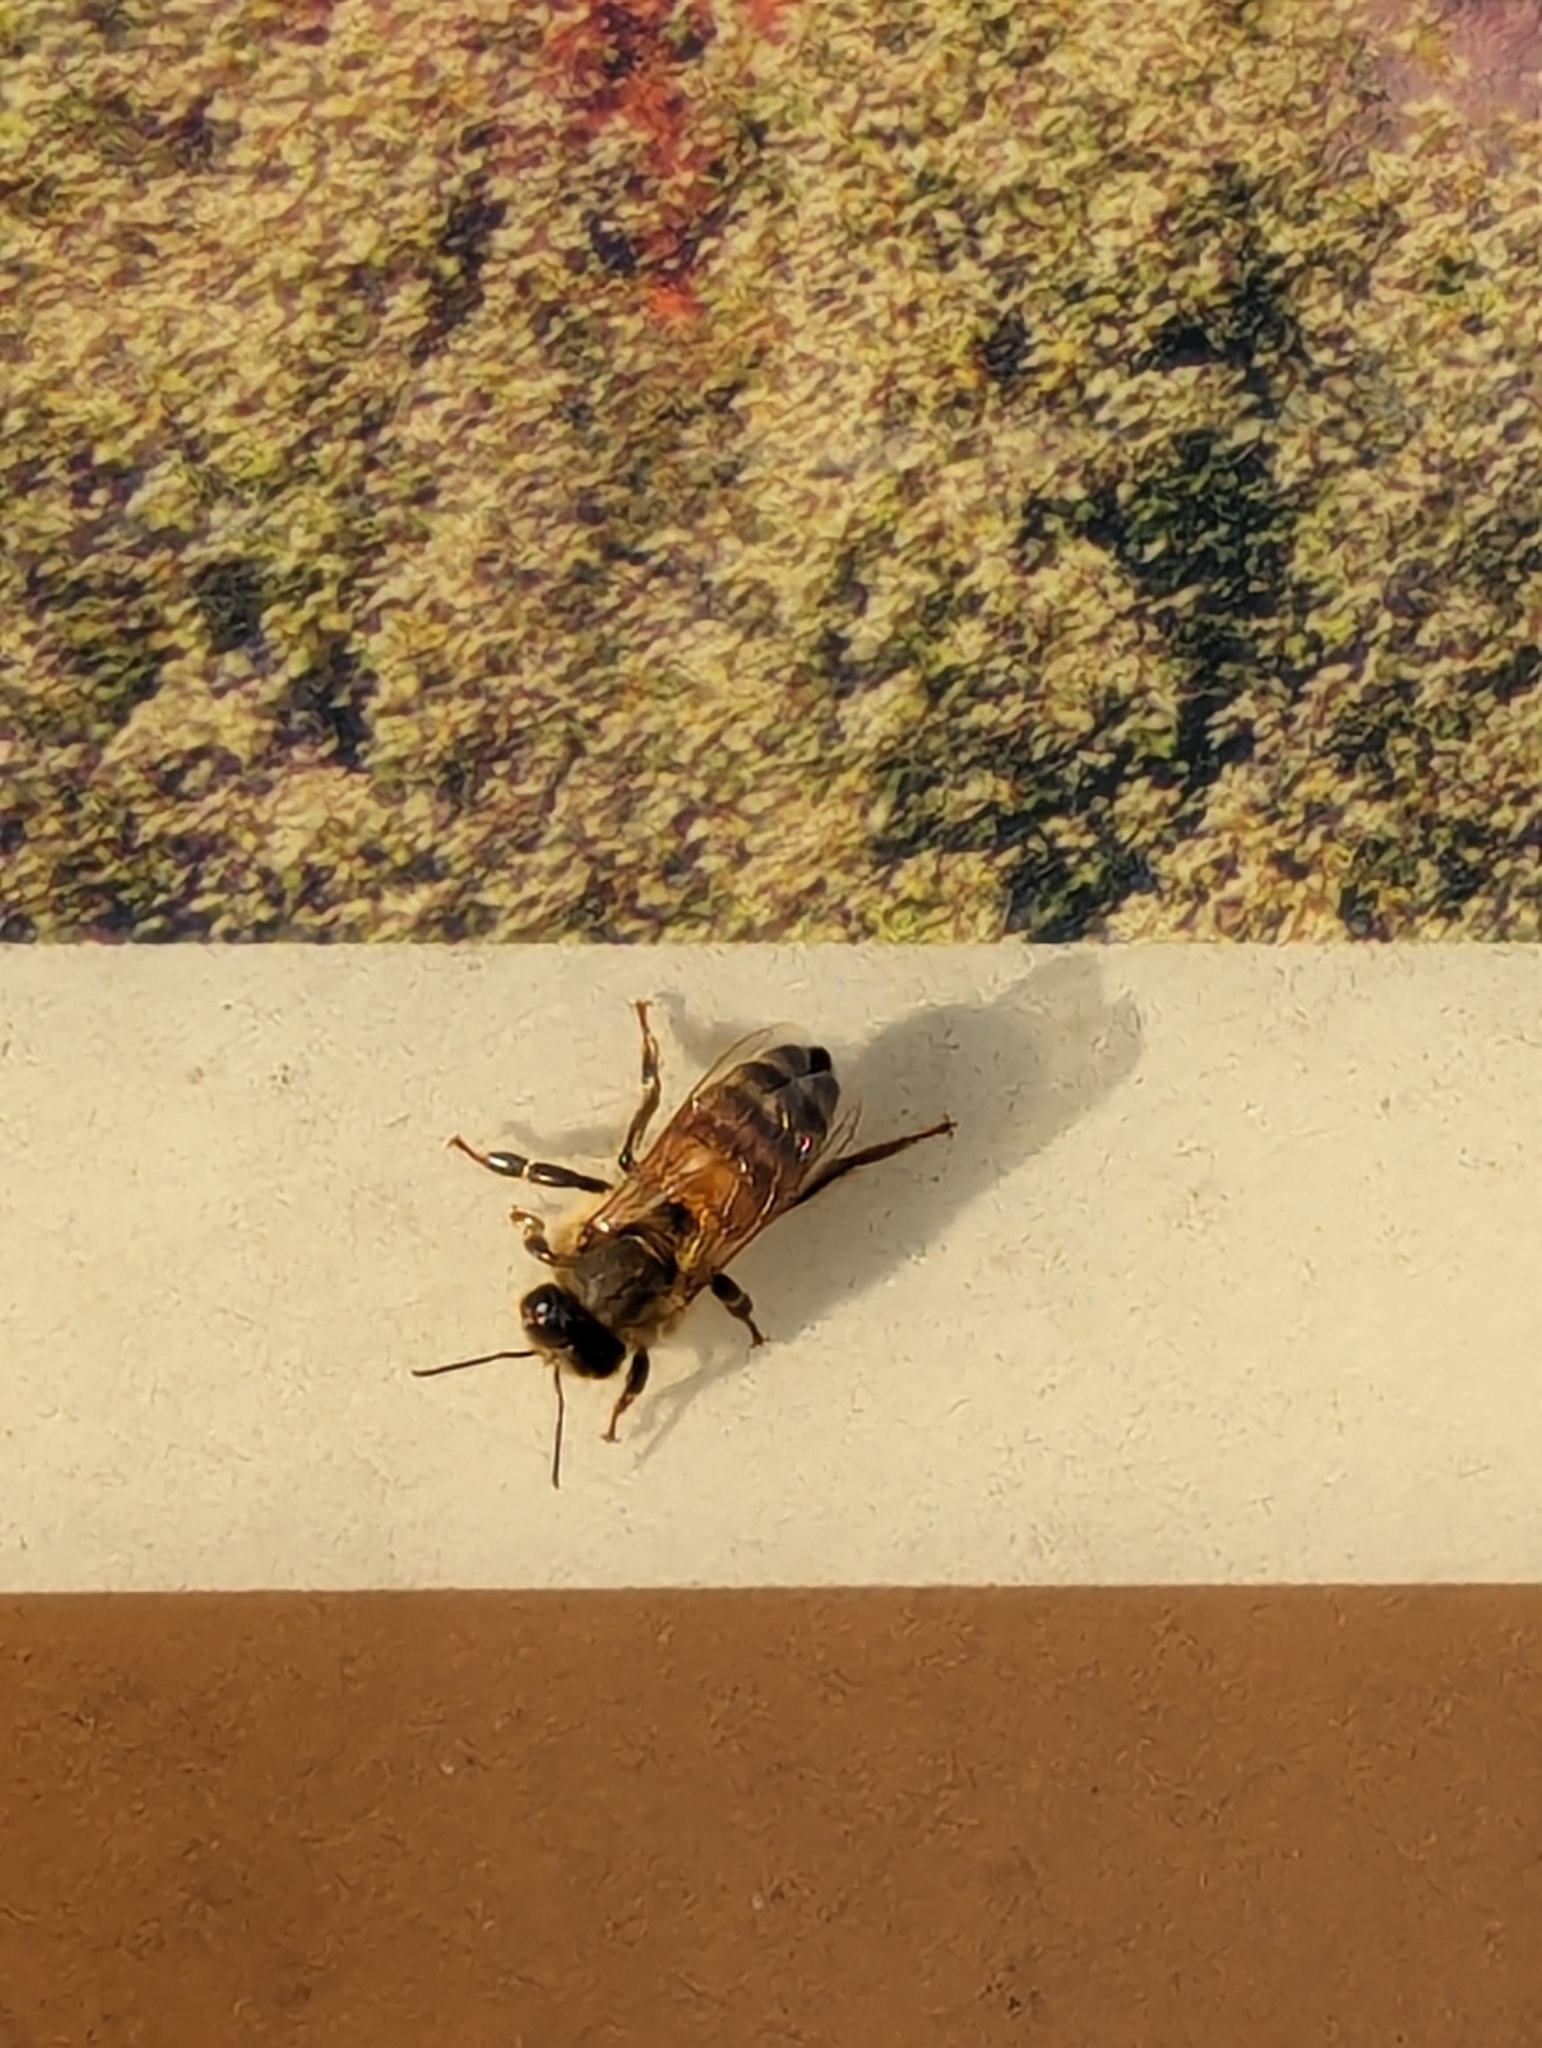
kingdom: Animalia
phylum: Arthropoda
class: Insecta
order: Hymenoptera
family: Apidae
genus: Apis
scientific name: Apis mellifera
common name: Honey bee
